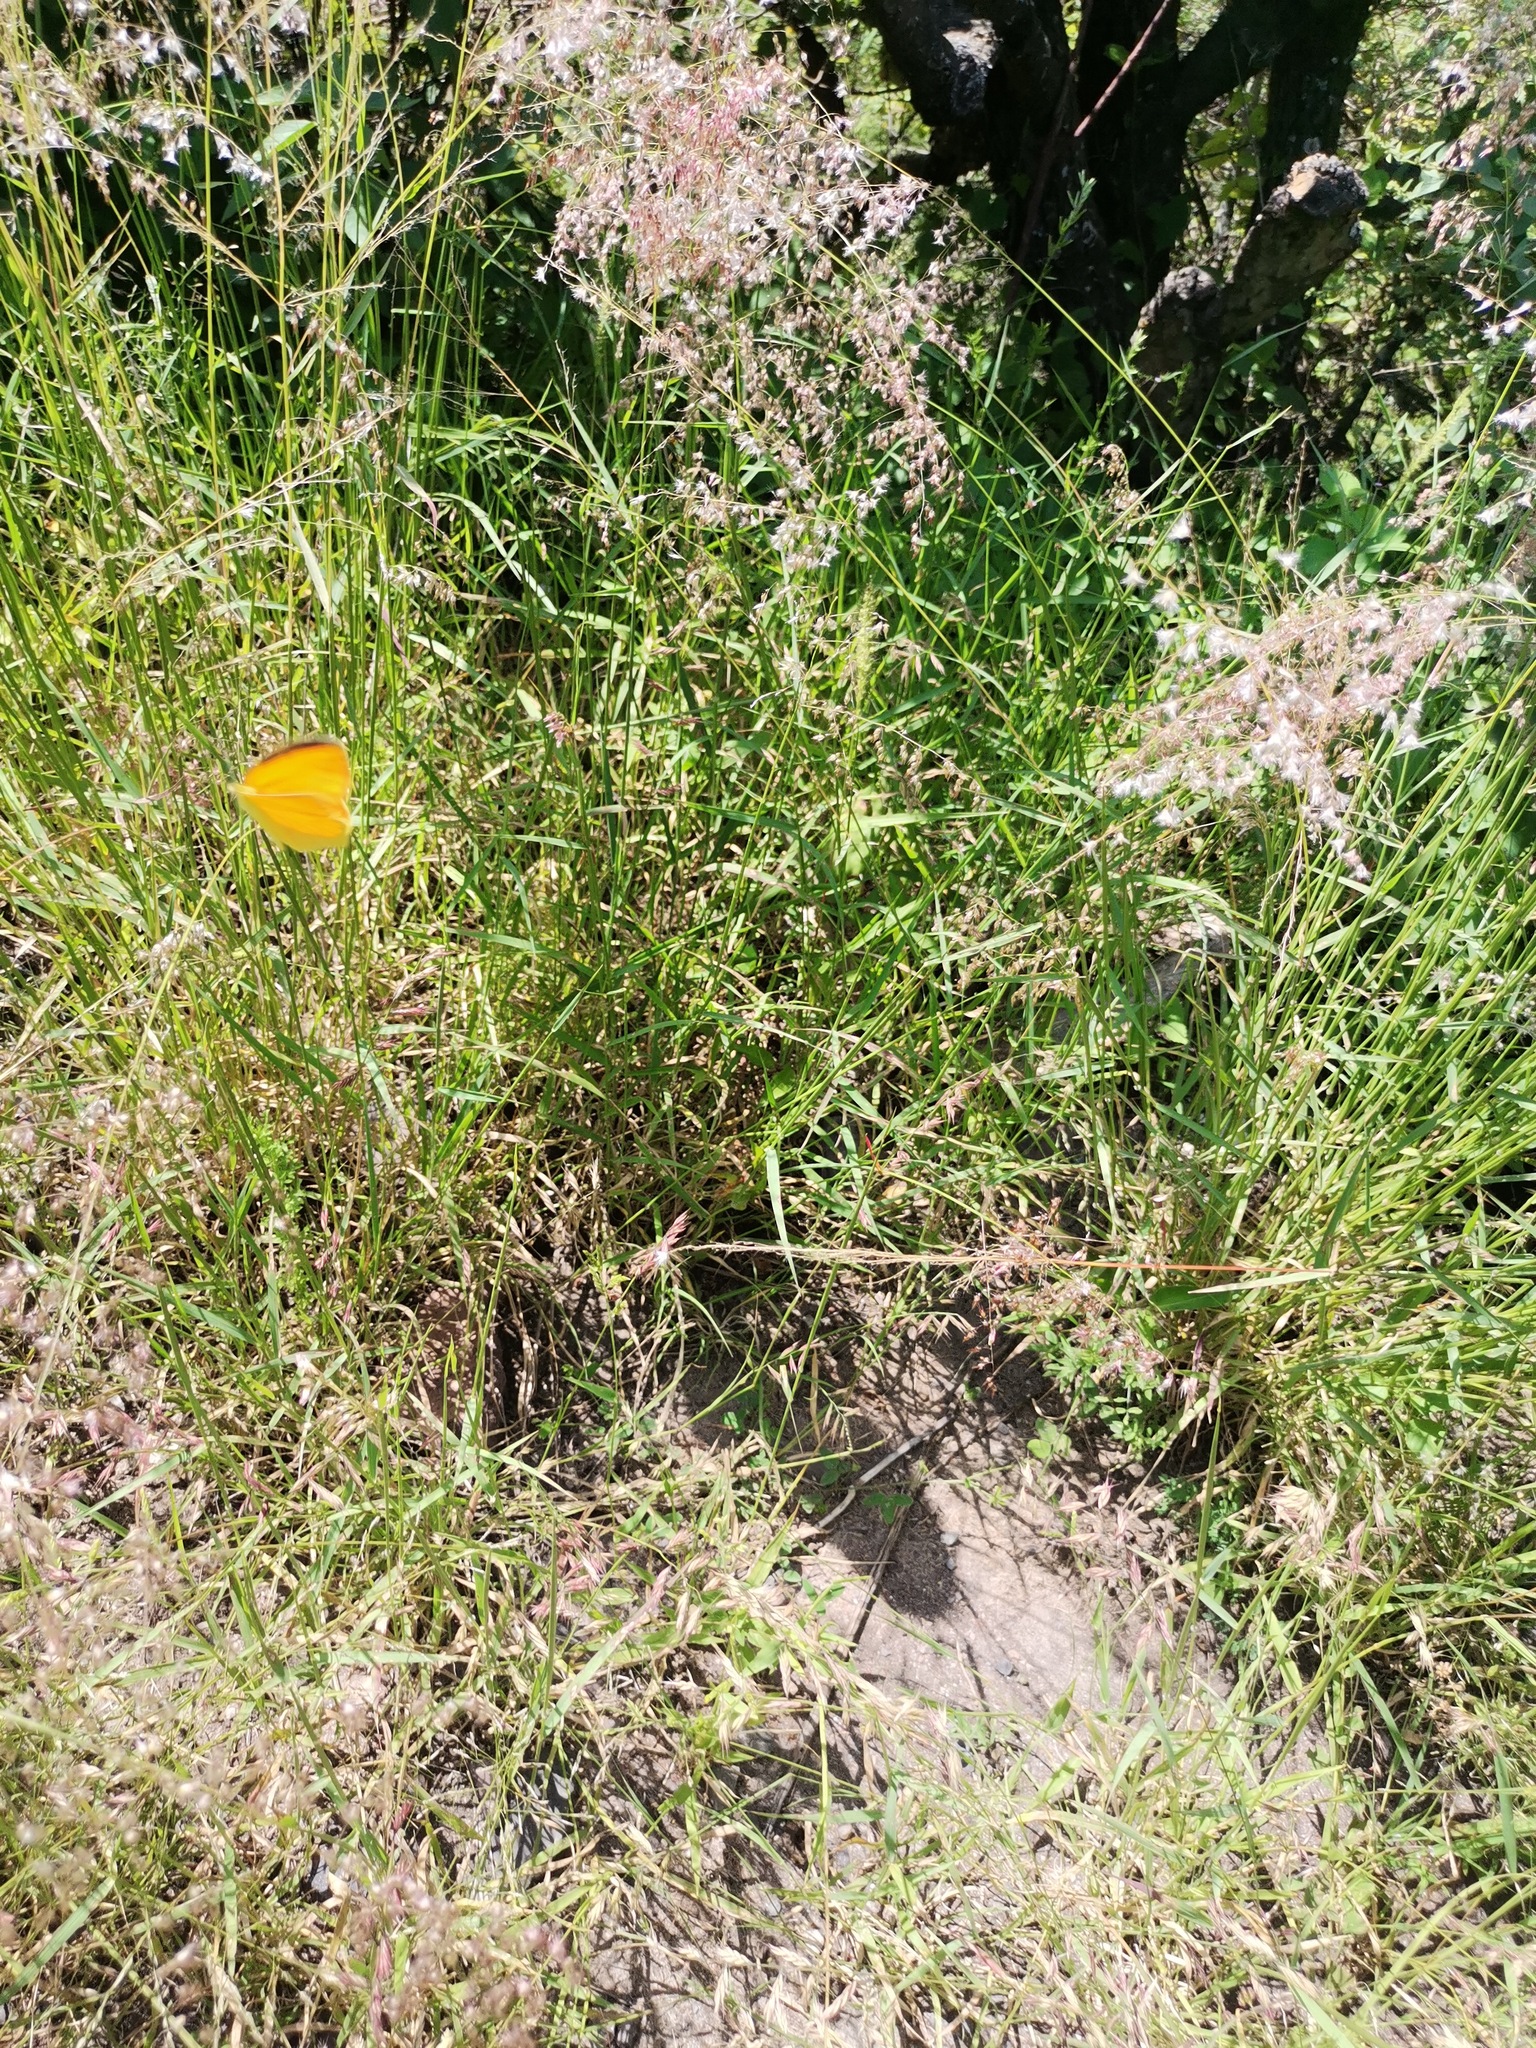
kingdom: Plantae
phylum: Tracheophyta
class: Liliopsida
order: Poales
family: Poaceae
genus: Melinis
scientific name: Melinis repens
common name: Rose natal grass
